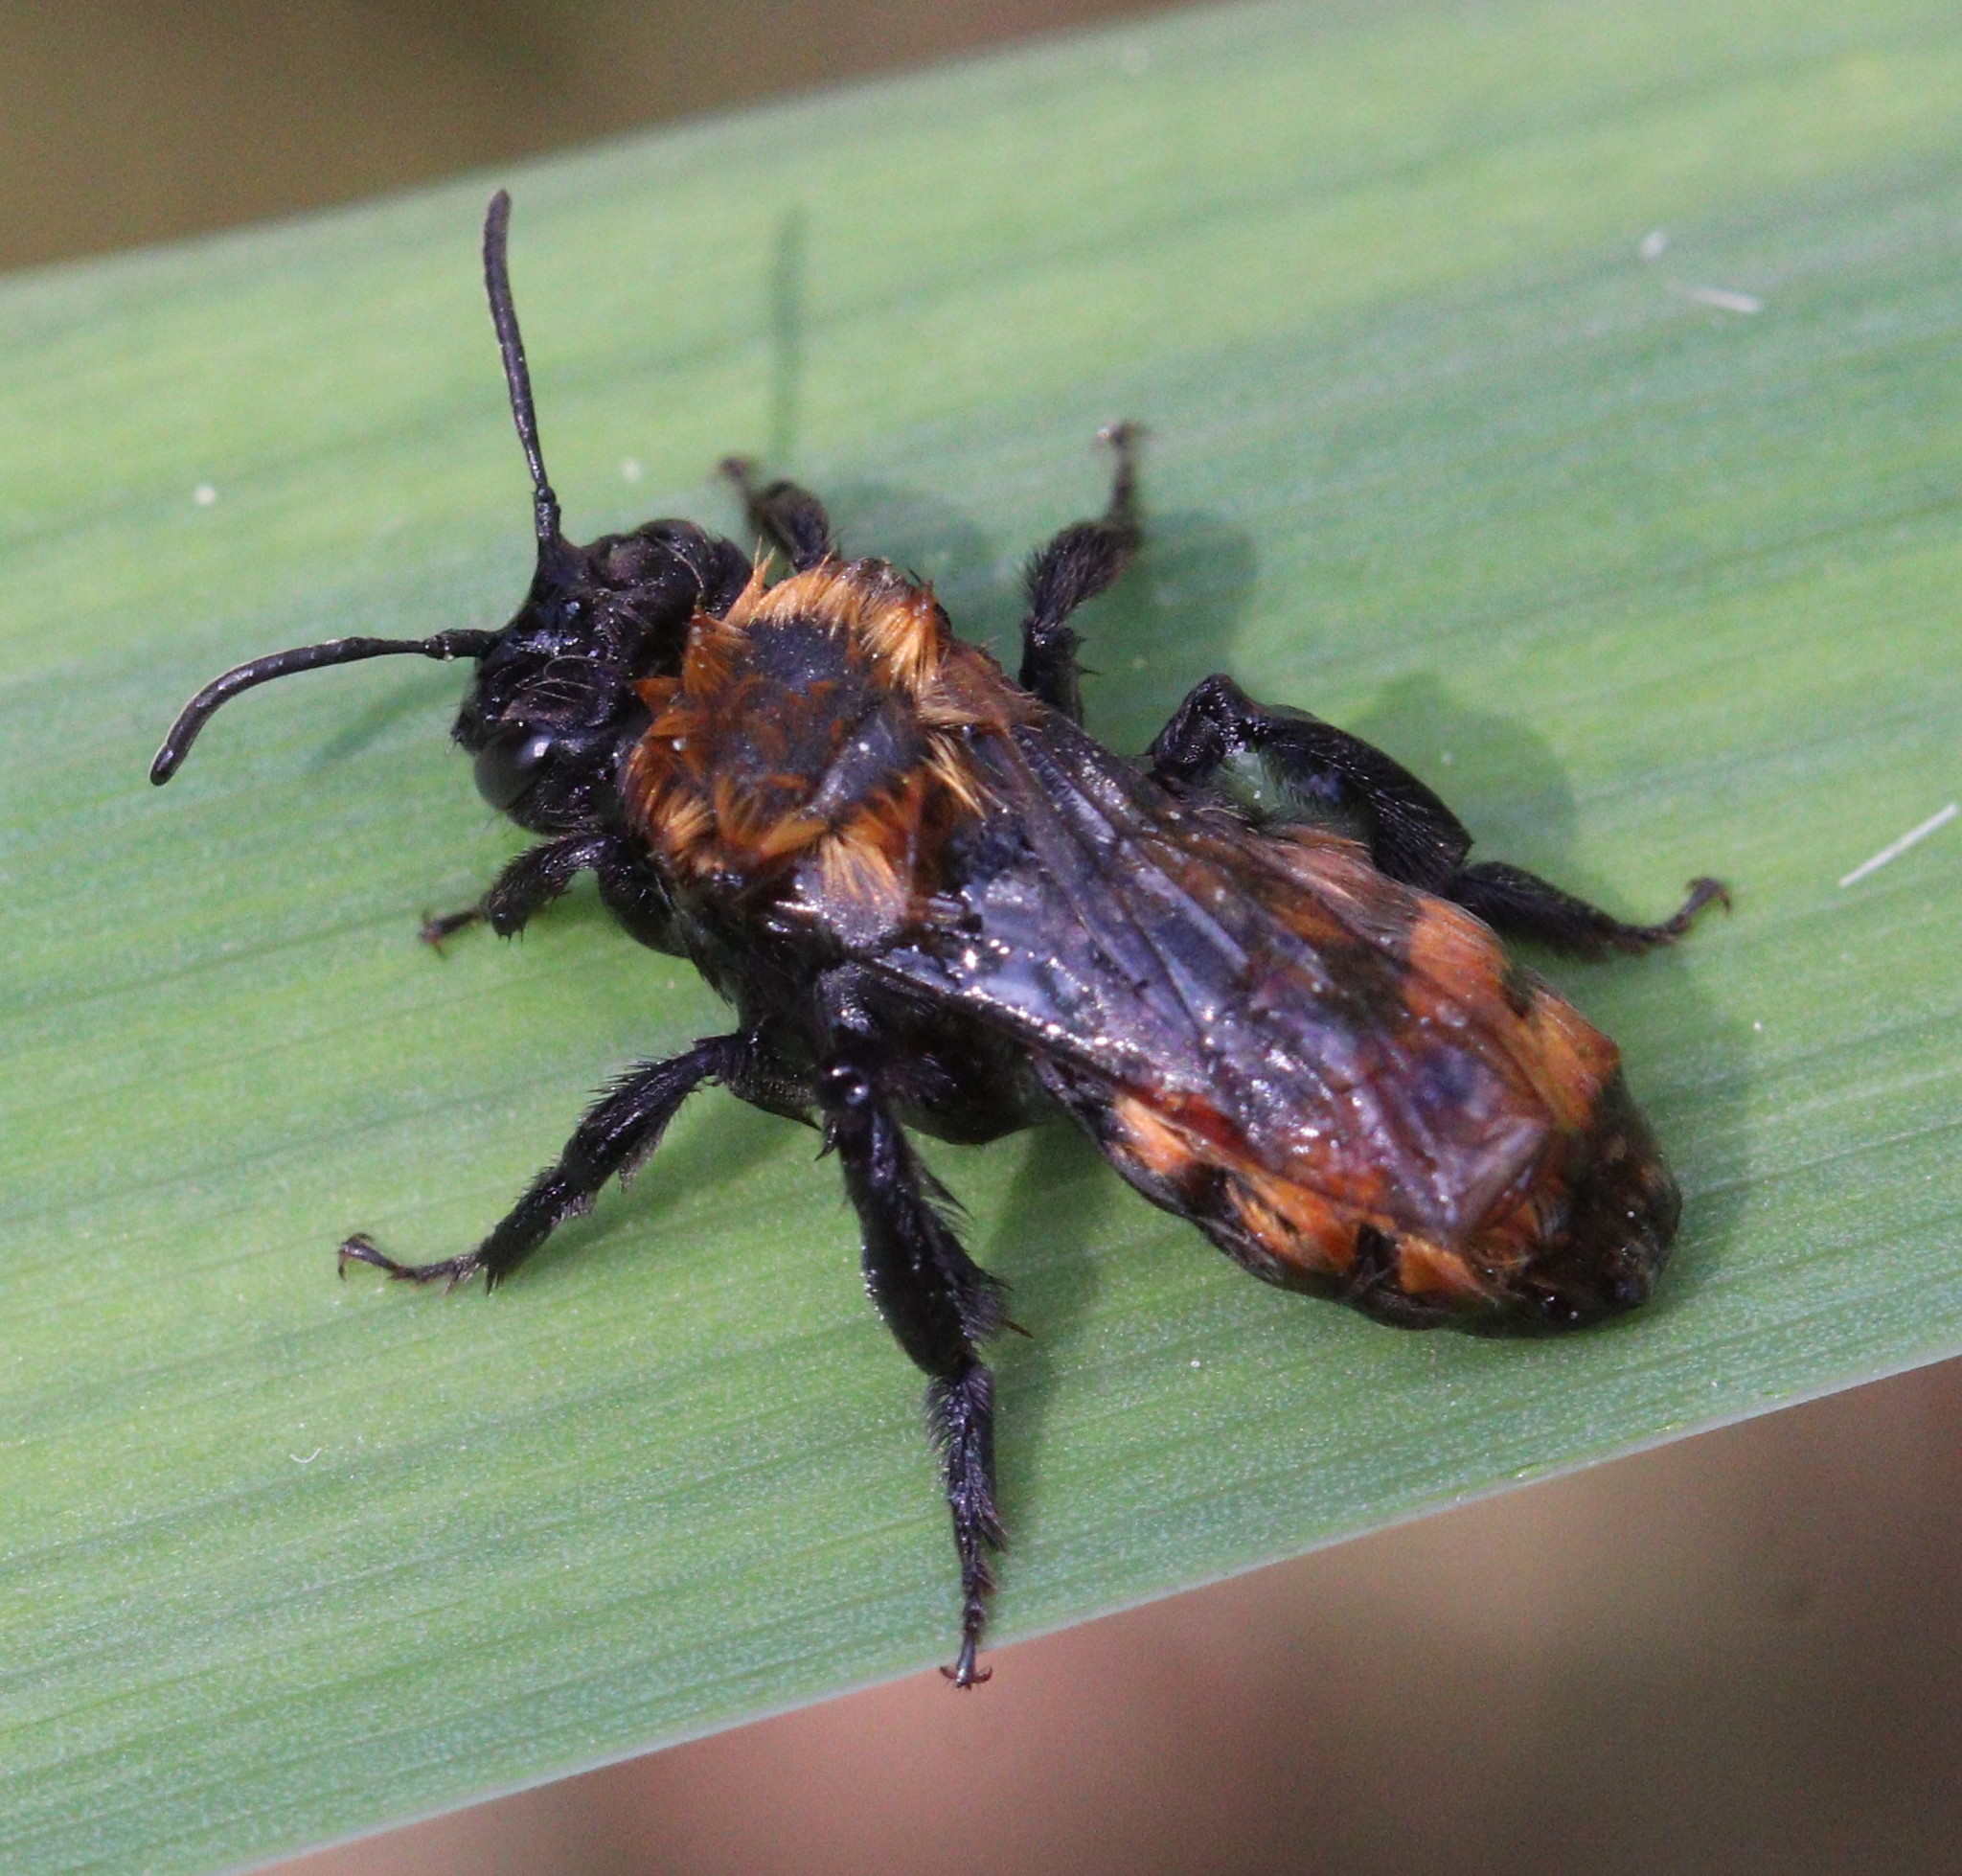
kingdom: Animalia
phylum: Arthropoda
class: Insecta
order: Hymenoptera
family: Andrenidae
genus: Andrena
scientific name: Andrena fulva
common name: Tawny mining bee
